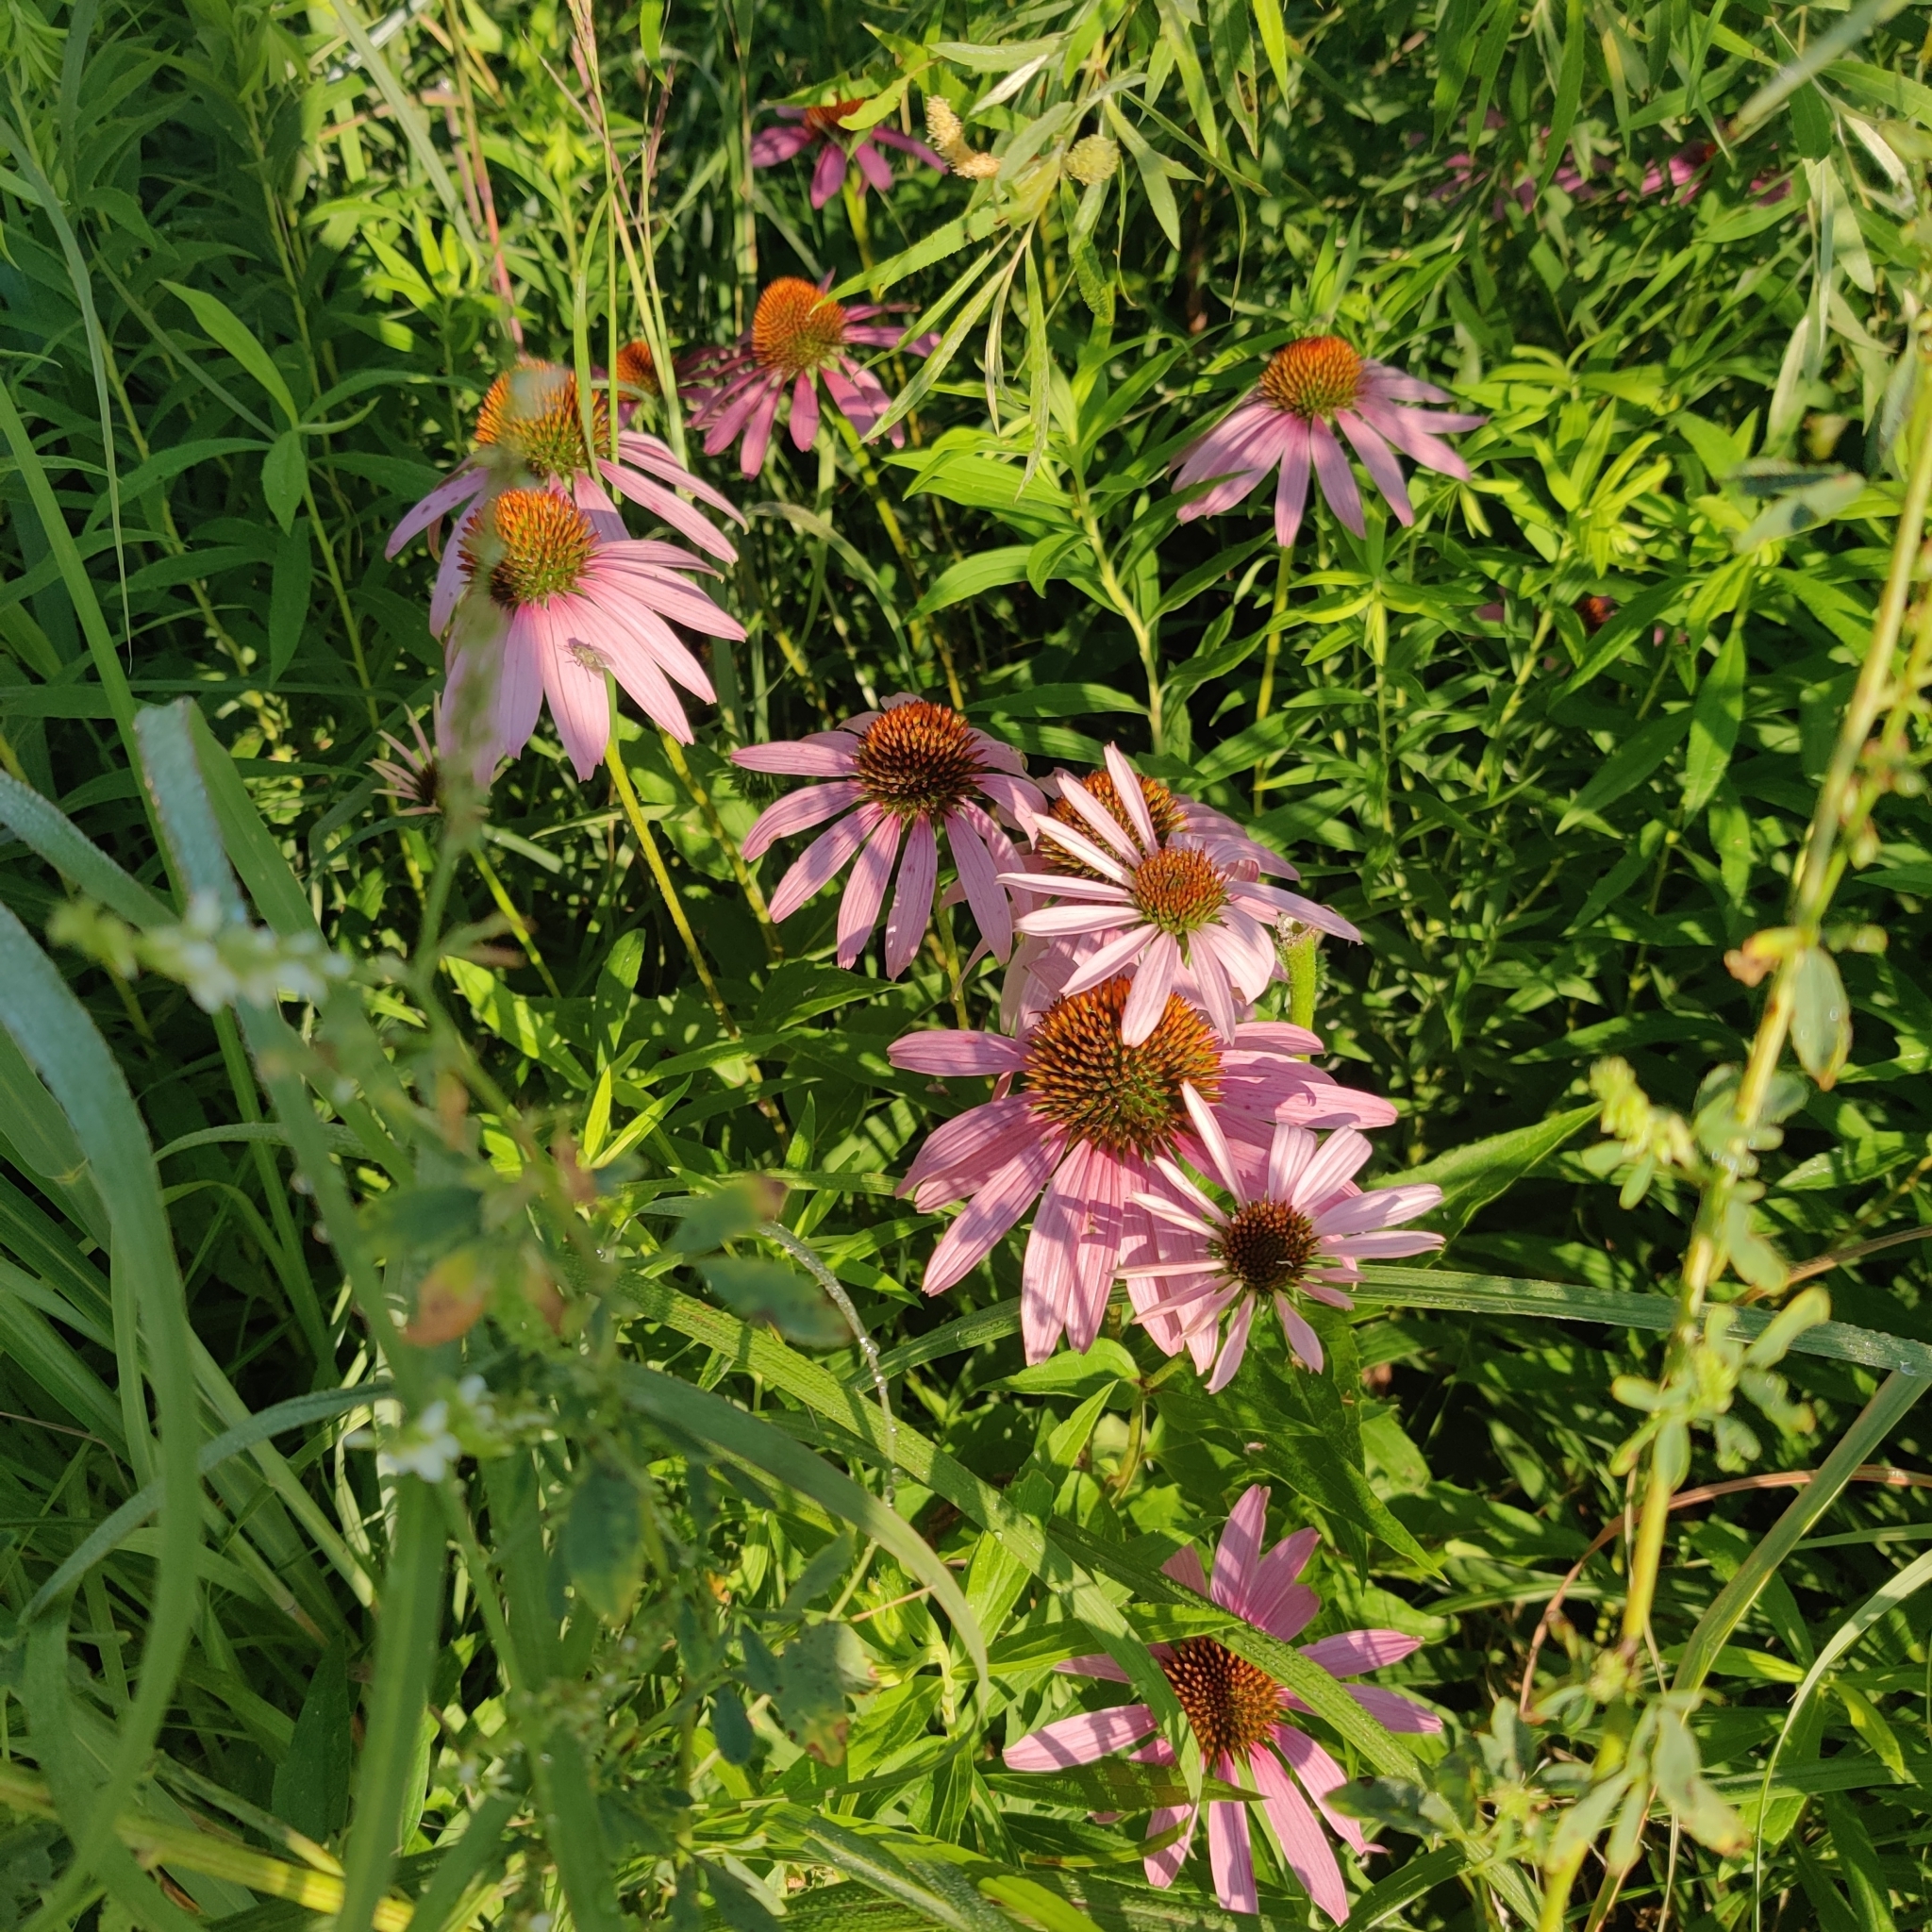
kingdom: Plantae
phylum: Tracheophyta
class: Magnoliopsida
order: Asterales
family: Asteraceae
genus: Echinacea
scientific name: Echinacea purpurea
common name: Broad-leaved purple coneflower
